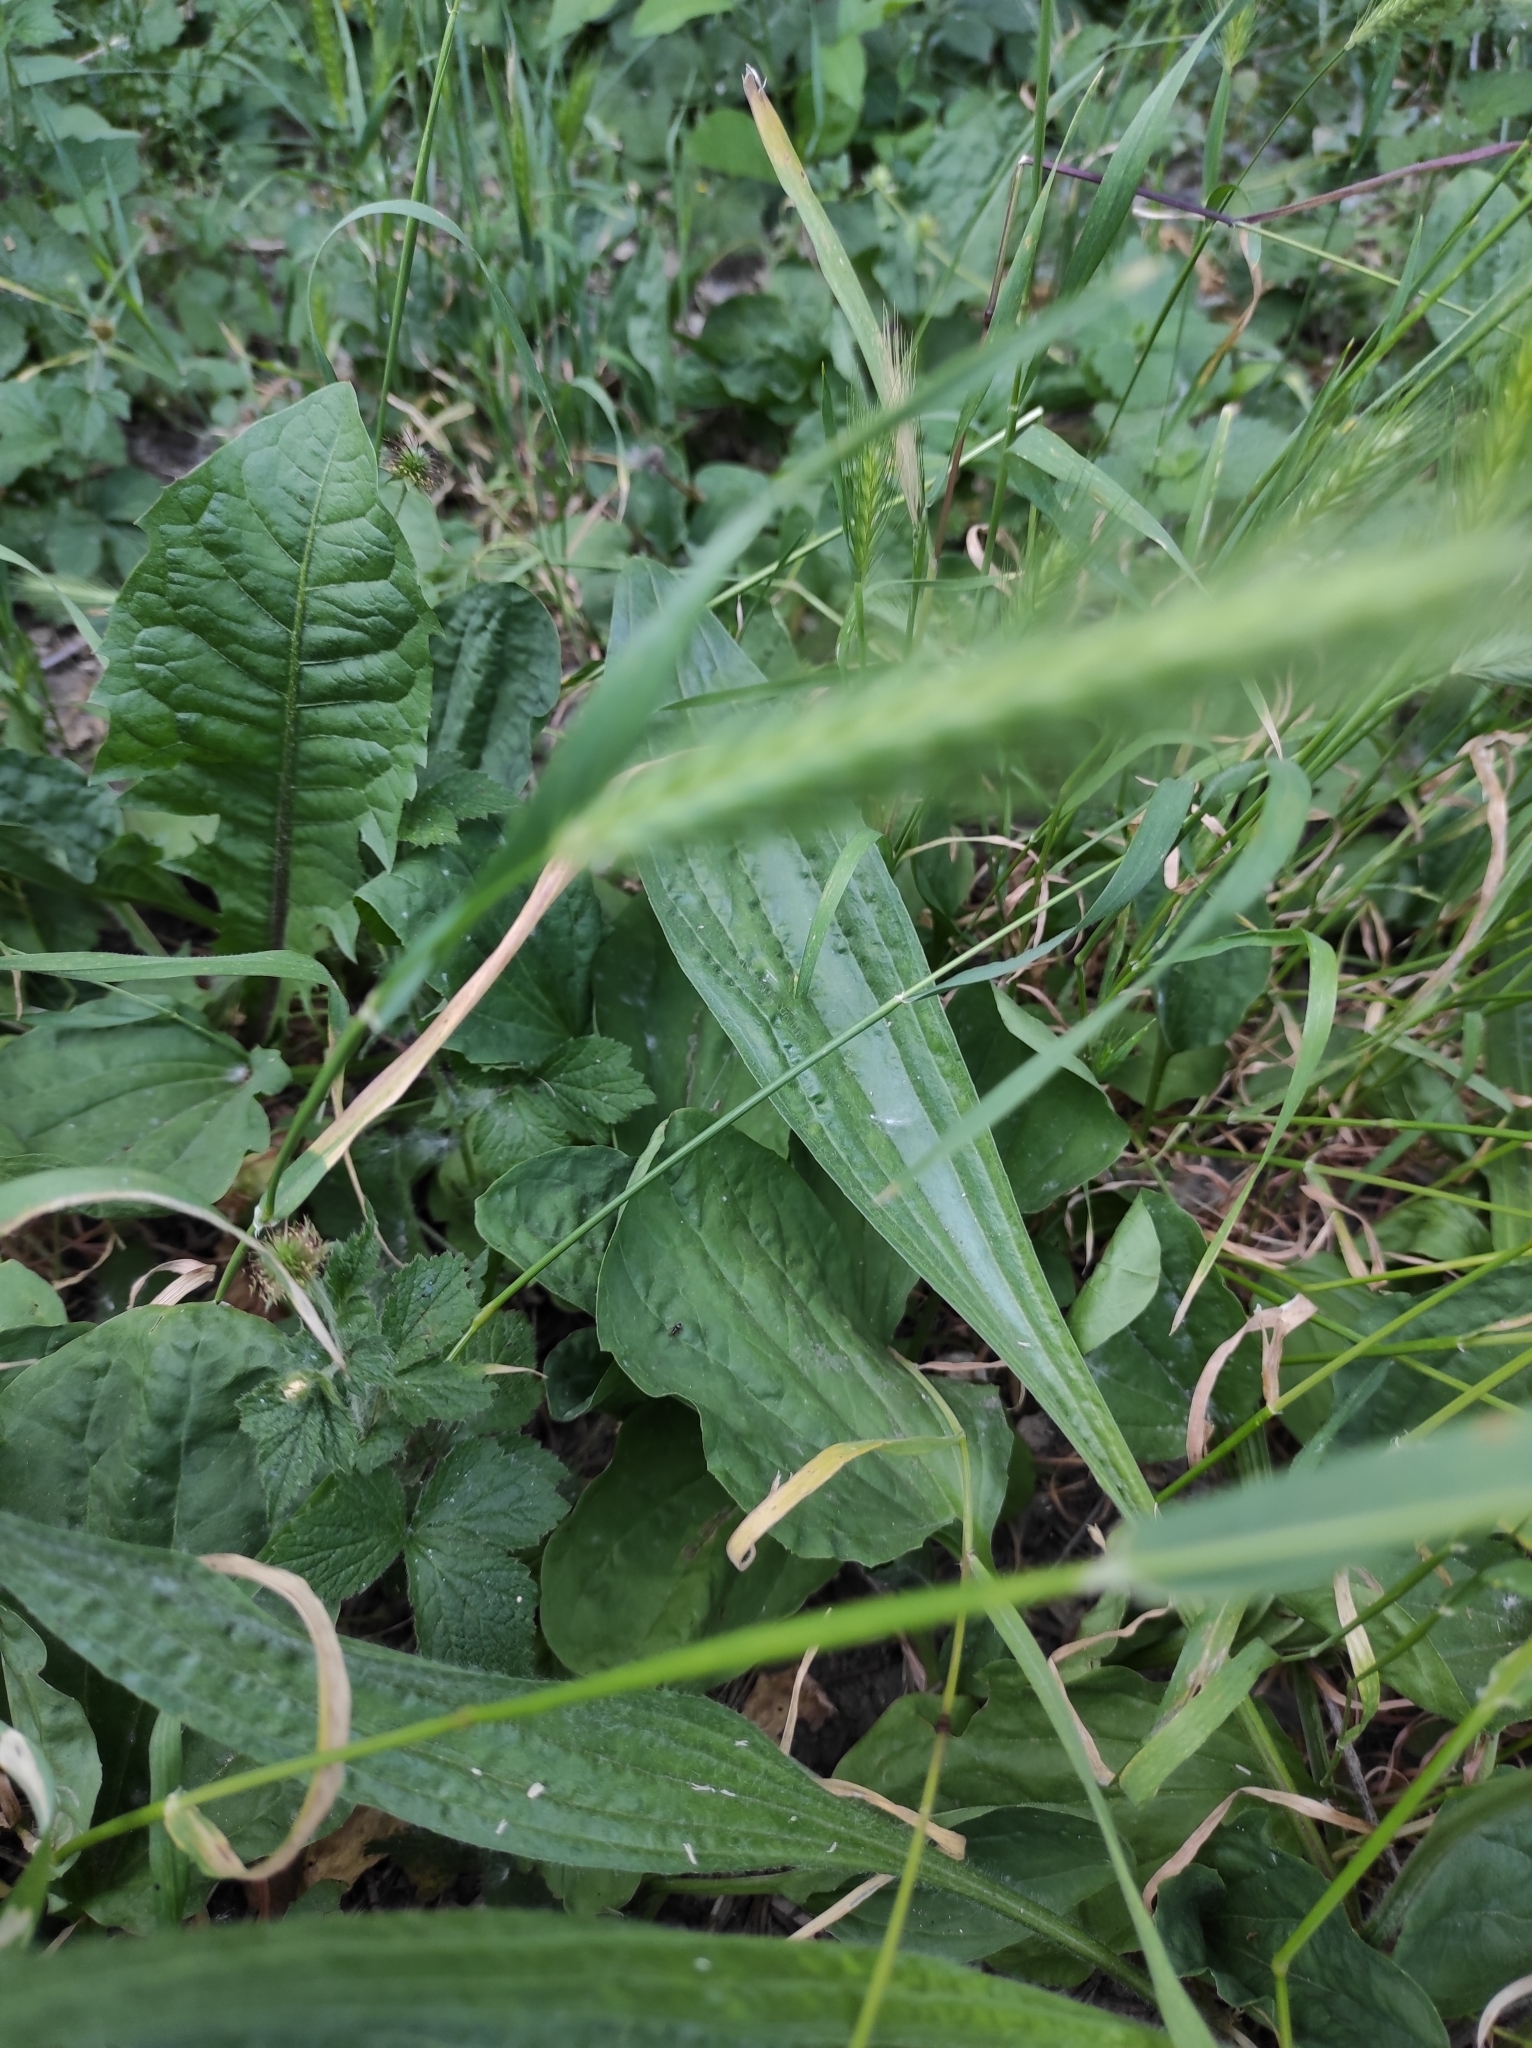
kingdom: Plantae
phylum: Tracheophyta
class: Magnoliopsida
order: Lamiales
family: Plantaginaceae
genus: Plantago
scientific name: Plantago lanceolata
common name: Ribwort plantain
